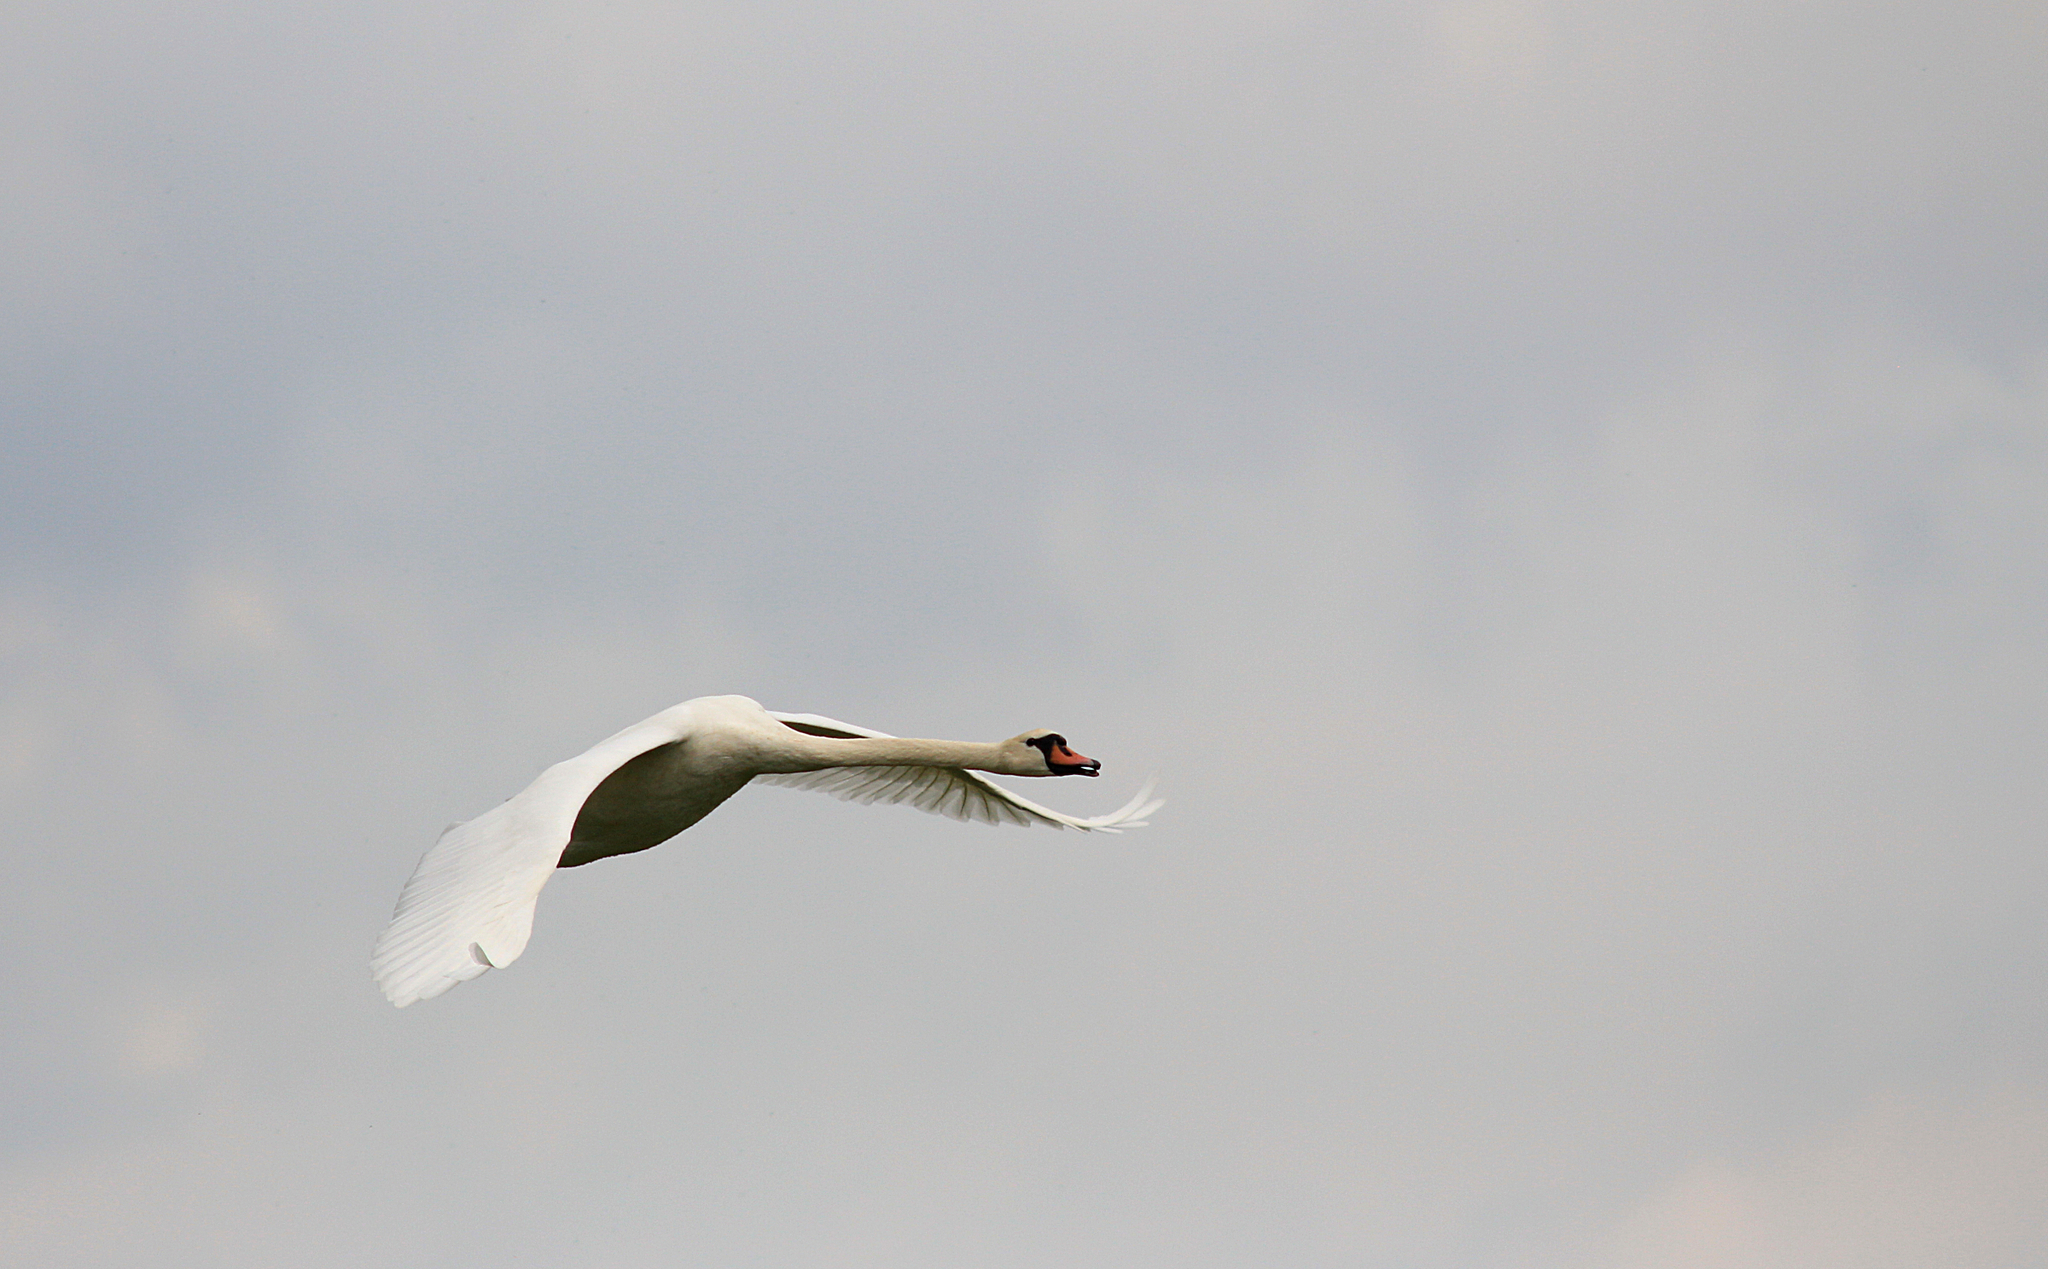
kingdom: Animalia
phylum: Chordata
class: Aves
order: Anseriformes
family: Anatidae
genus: Cygnus
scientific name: Cygnus olor
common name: Mute swan
